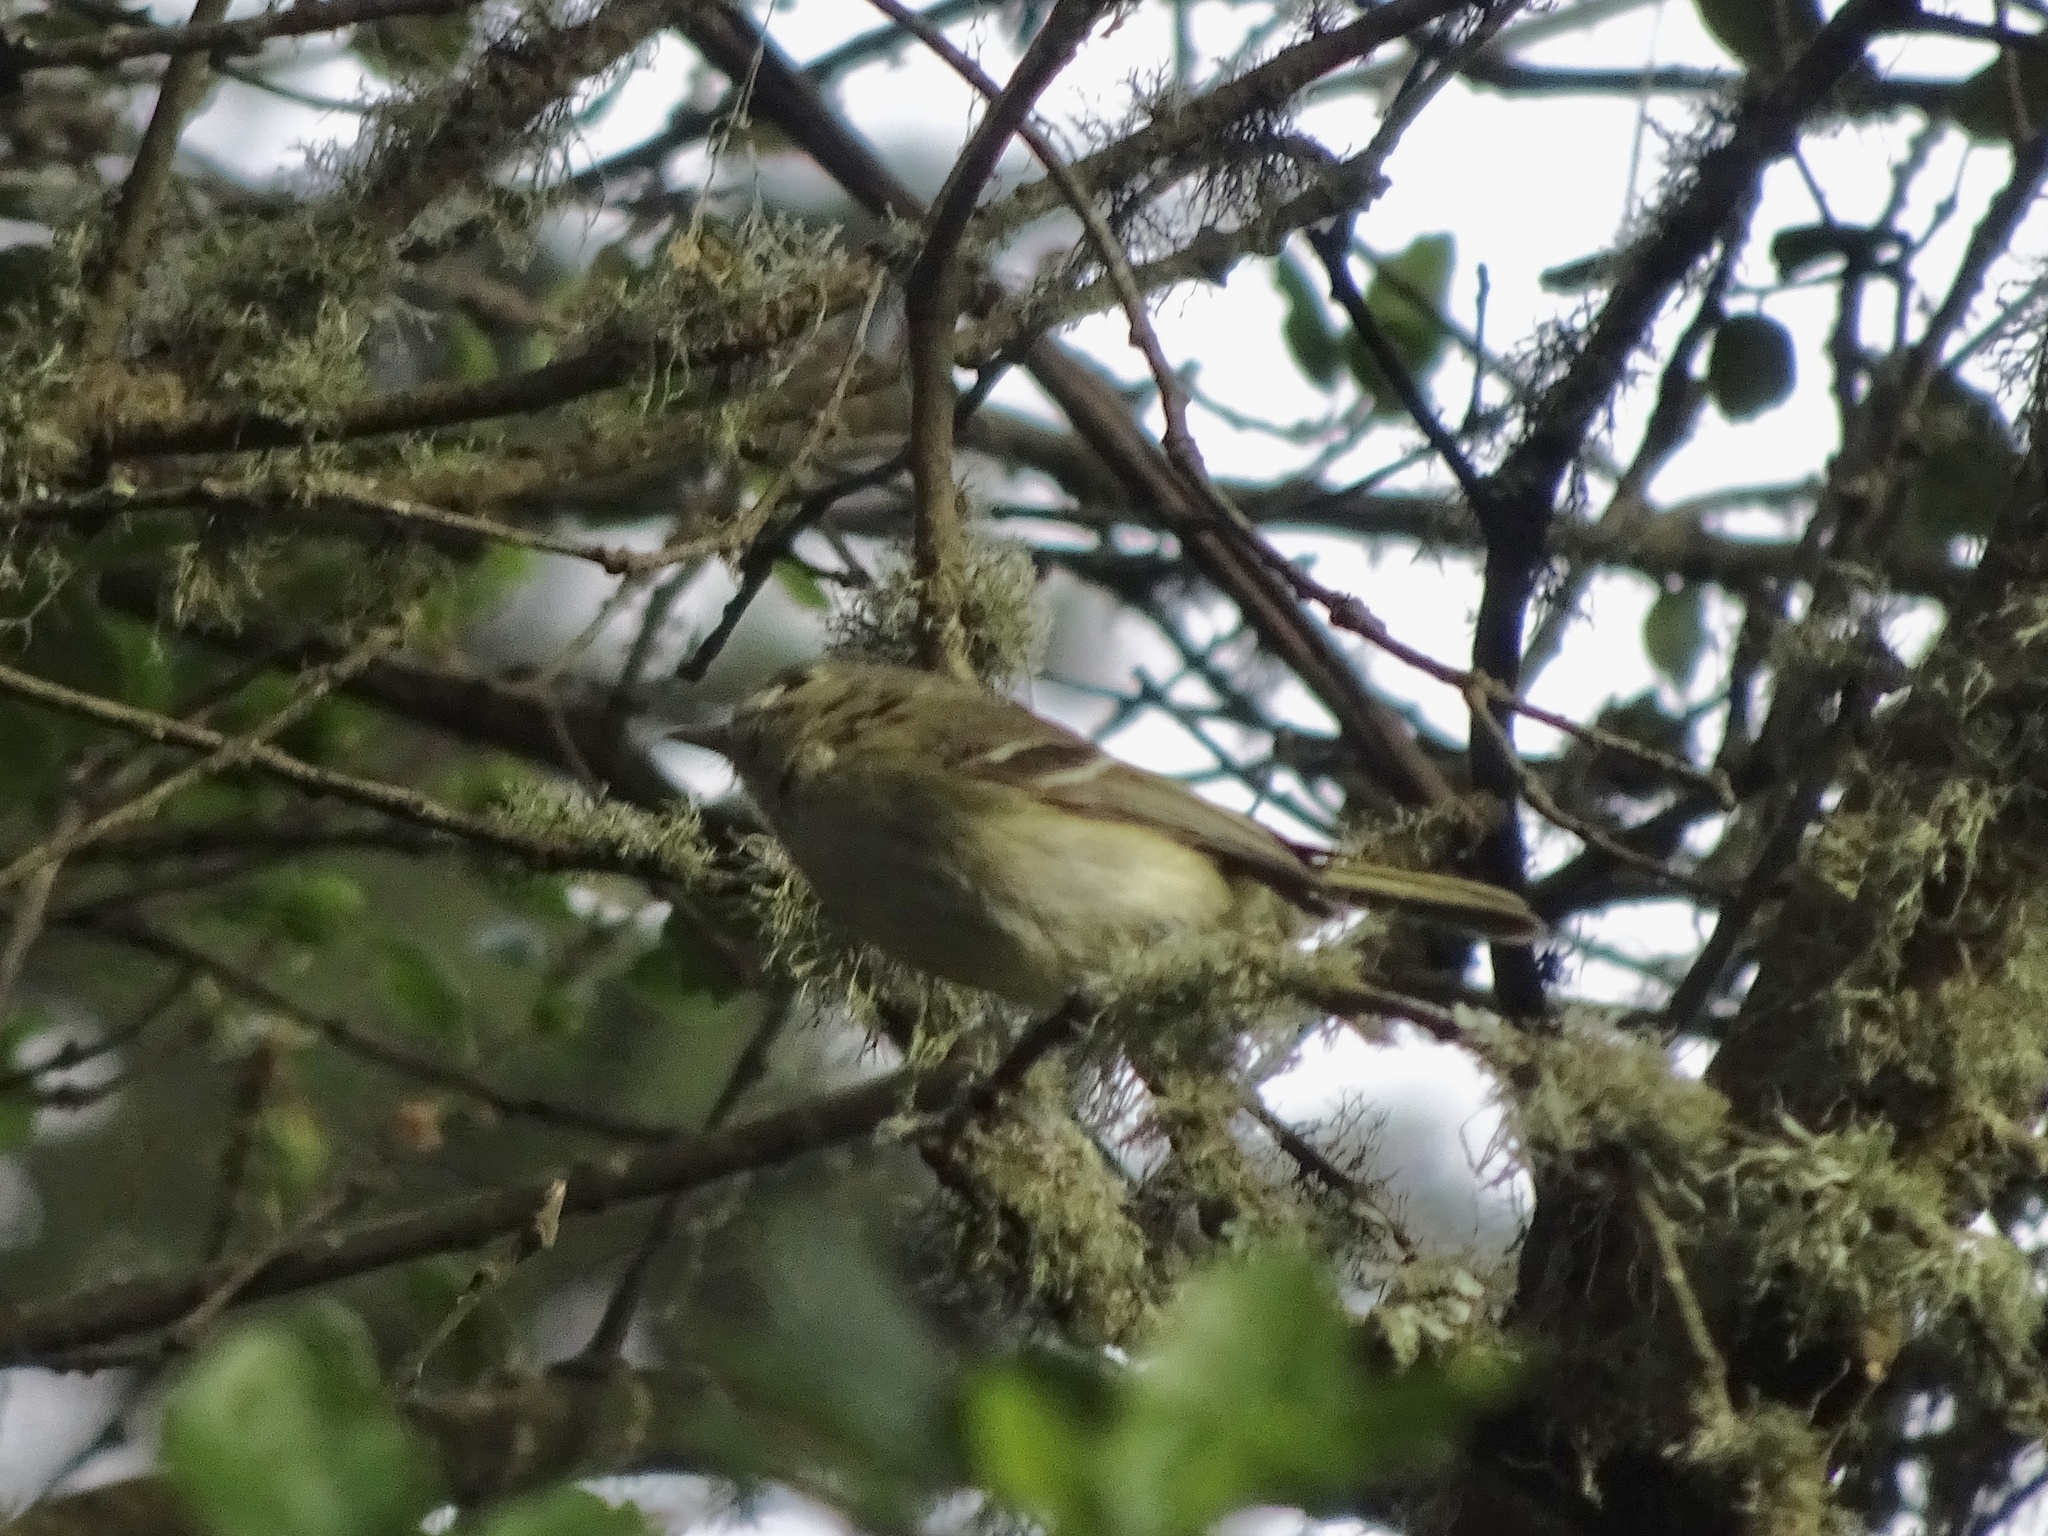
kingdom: Animalia
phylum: Chordata
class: Aves
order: Passeriformes
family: Vireonidae
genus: Vireo
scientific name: Vireo huttoni
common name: Hutton's vireo
